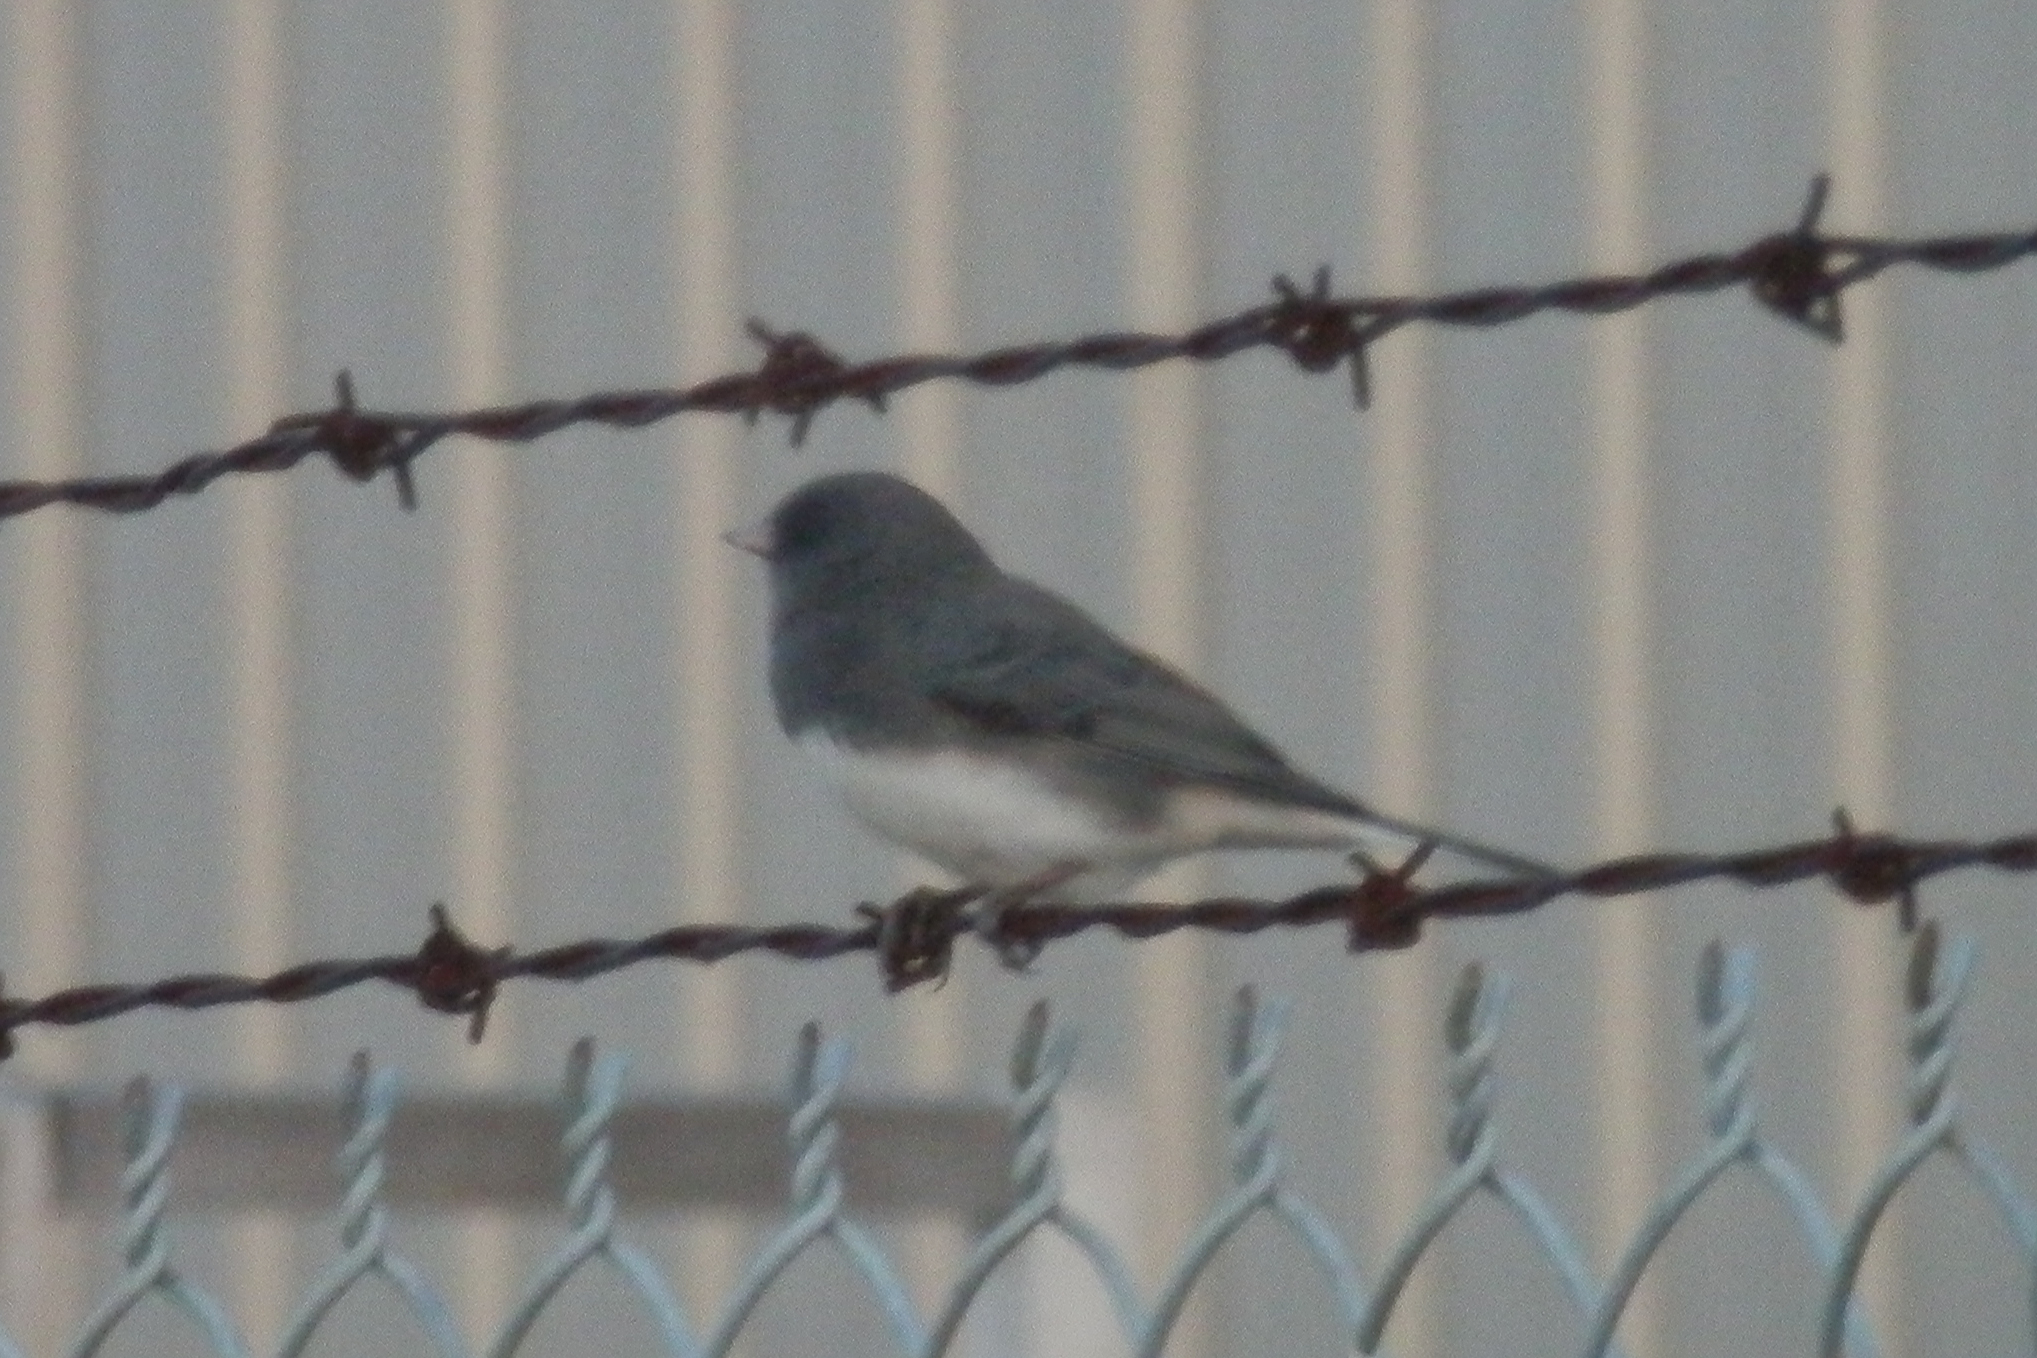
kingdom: Animalia
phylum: Chordata
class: Aves
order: Passeriformes
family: Passerellidae
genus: Junco
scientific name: Junco hyemalis
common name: Dark-eyed junco
